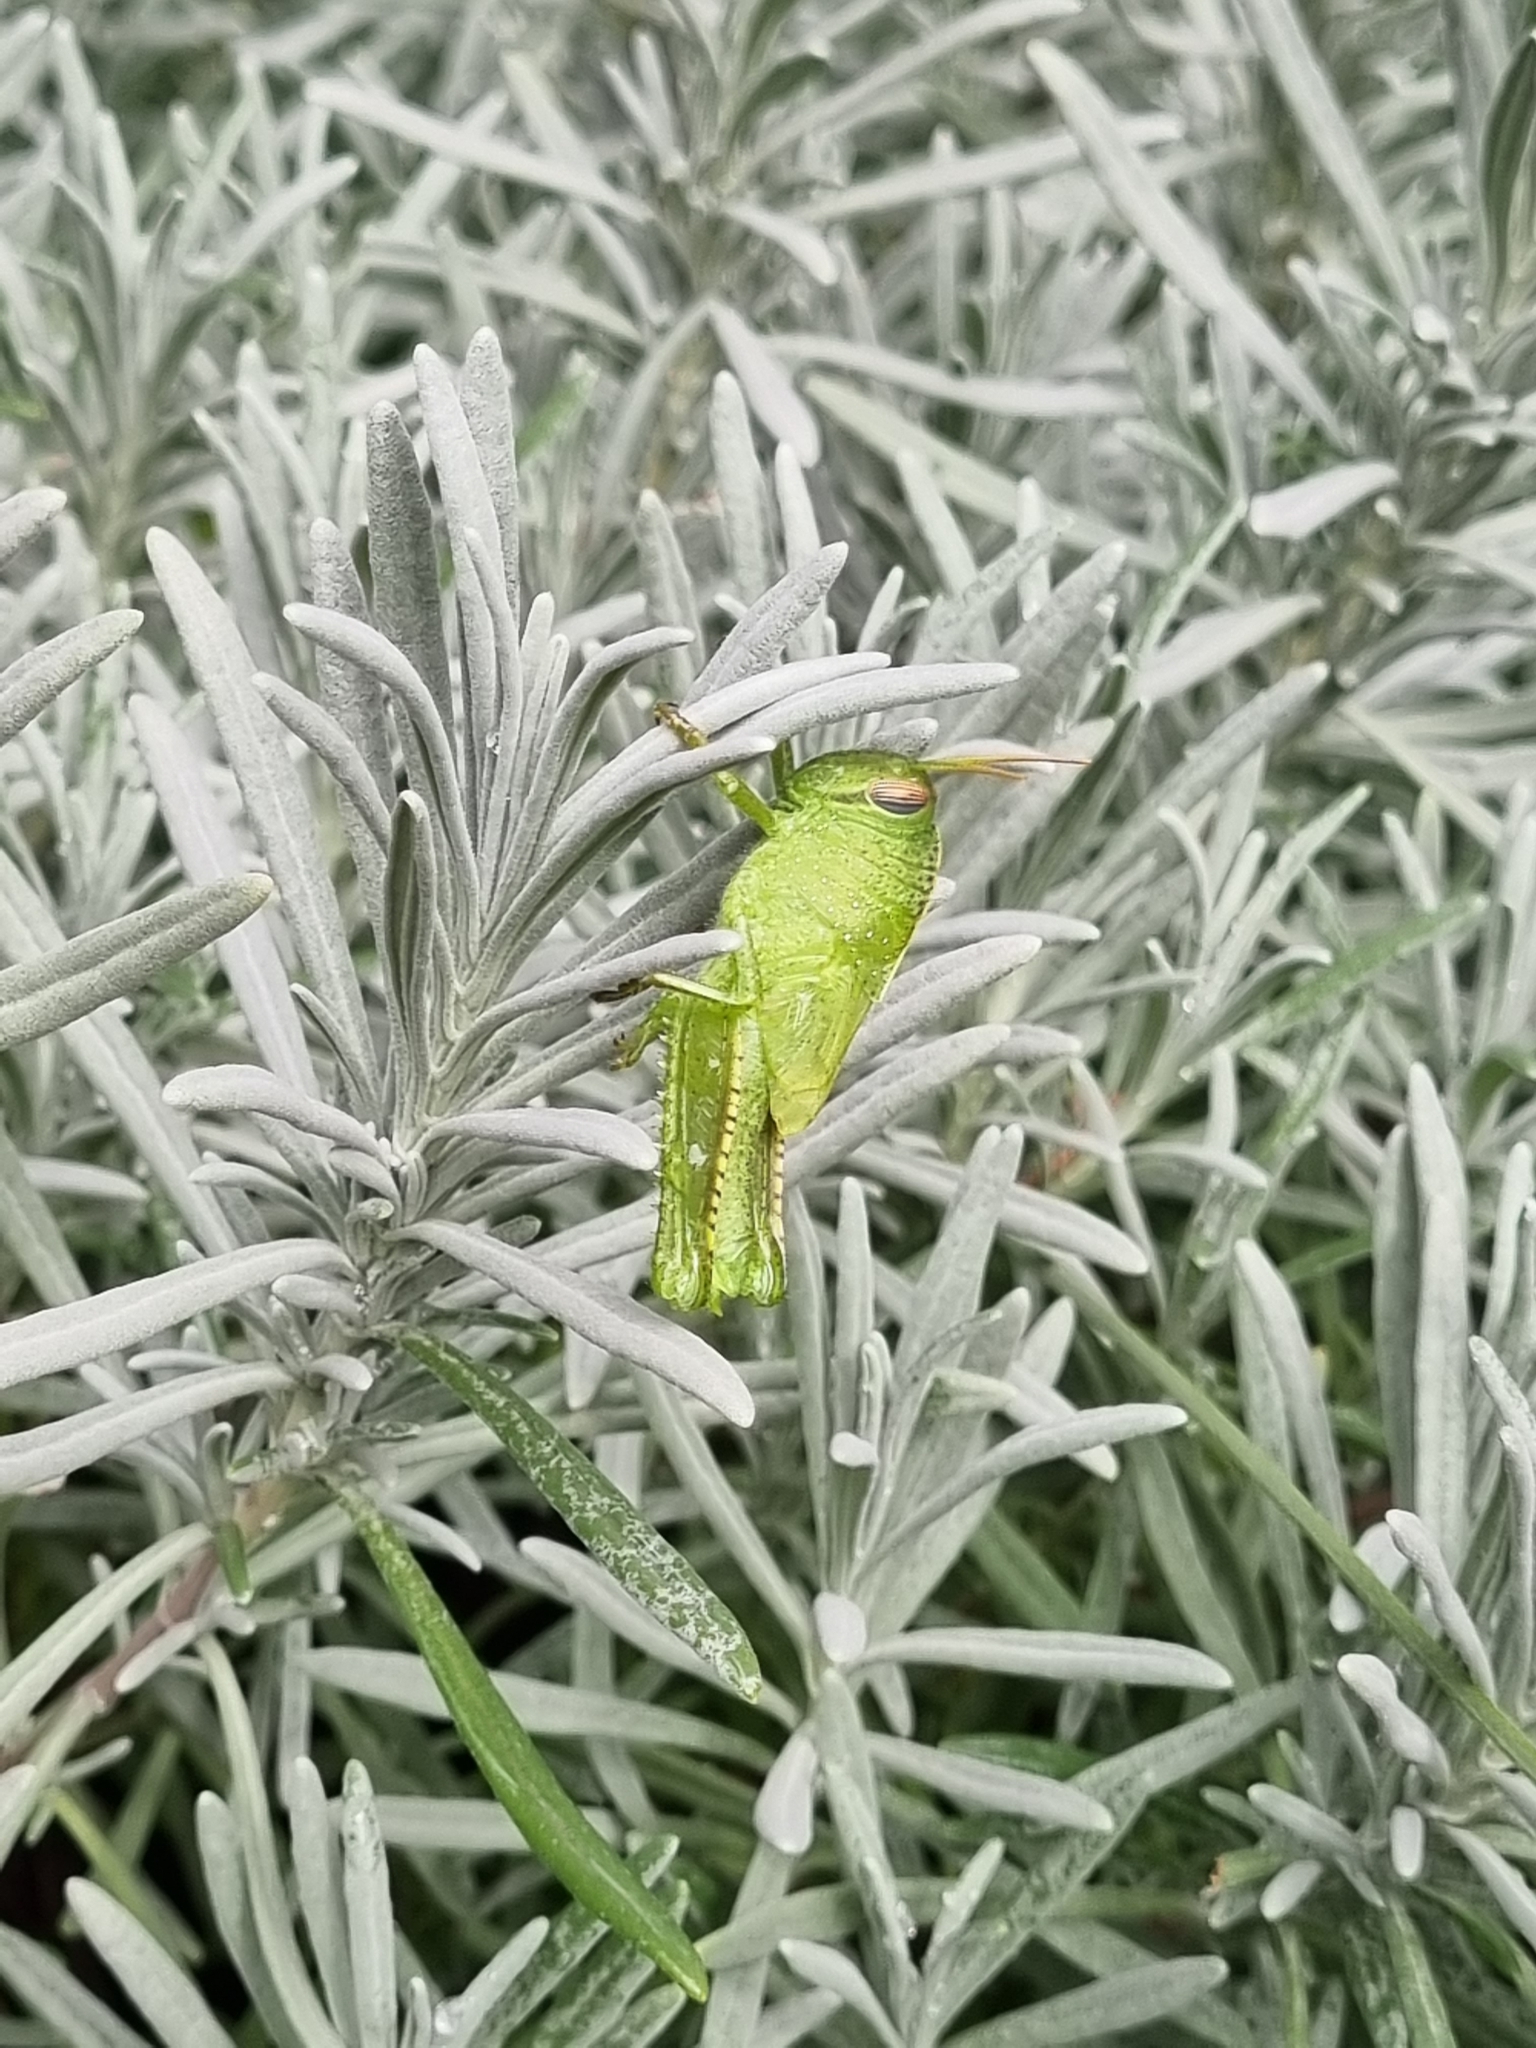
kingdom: Animalia
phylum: Arthropoda
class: Insecta
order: Orthoptera
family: Acrididae
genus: Anacridium
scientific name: Anacridium aegyptium
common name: Egyptian grasshopper
